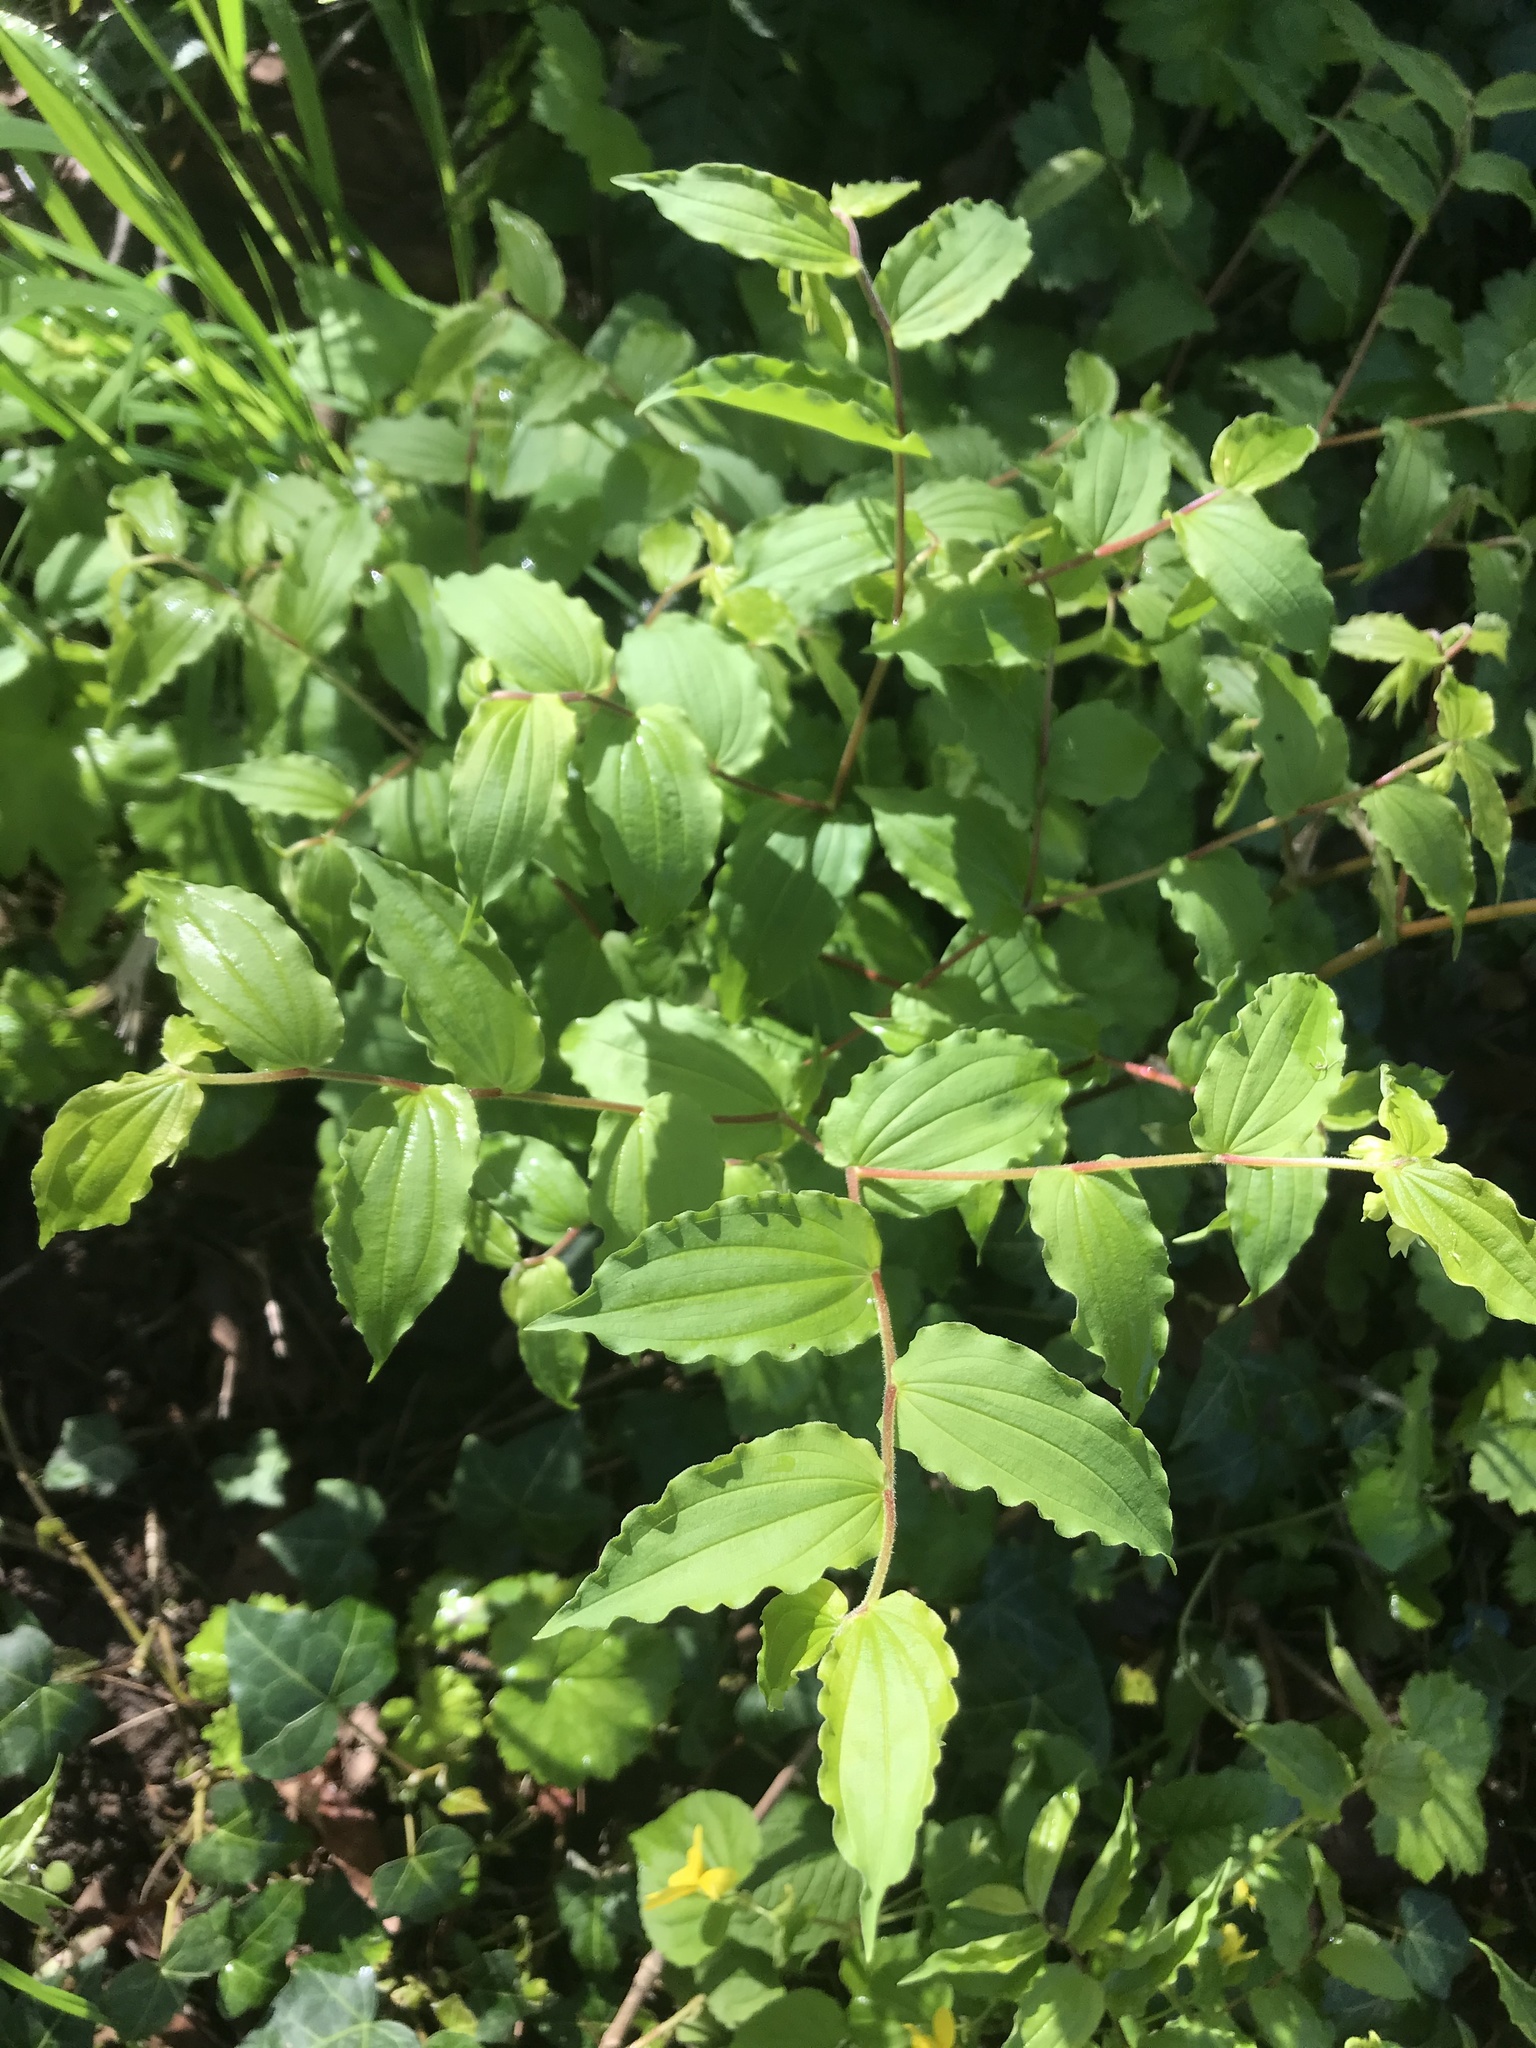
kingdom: Plantae
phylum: Tracheophyta
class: Liliopsida
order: Liliales
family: Liliaceae
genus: Prosartes
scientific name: Prosartes hookeri
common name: Fairy-bells
